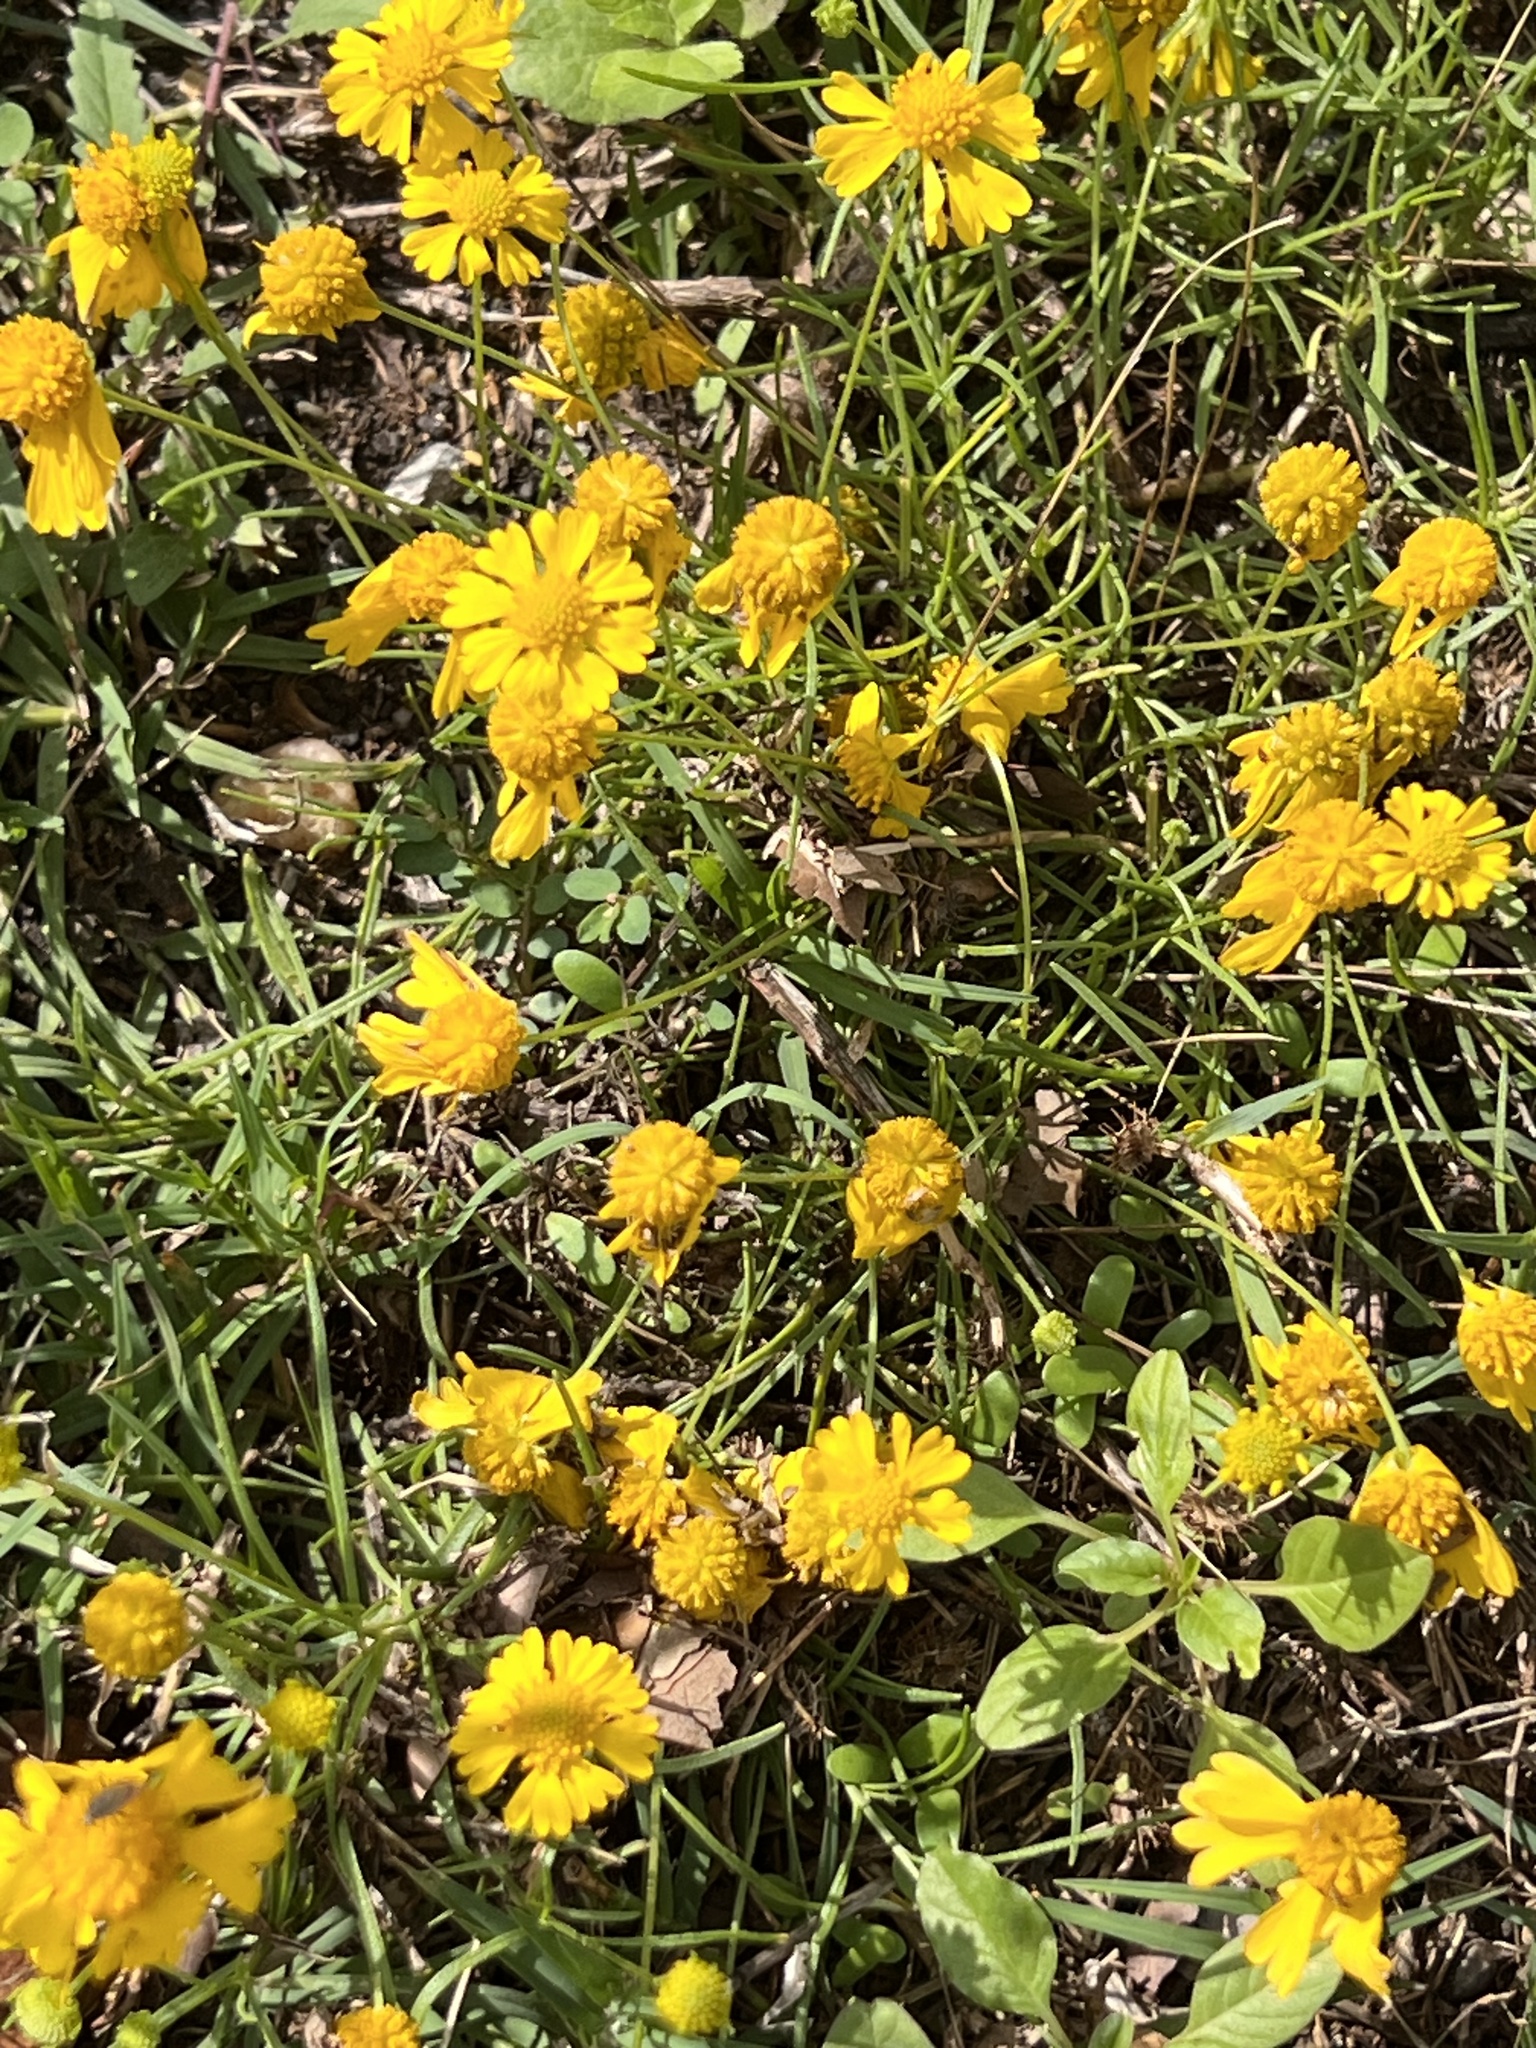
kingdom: Plantae
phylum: Tracheophyta
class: Magnoliopsida
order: Asterales
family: Asteraceae
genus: Helenium
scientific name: Helenium amarum
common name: Bitter sneezeweed
